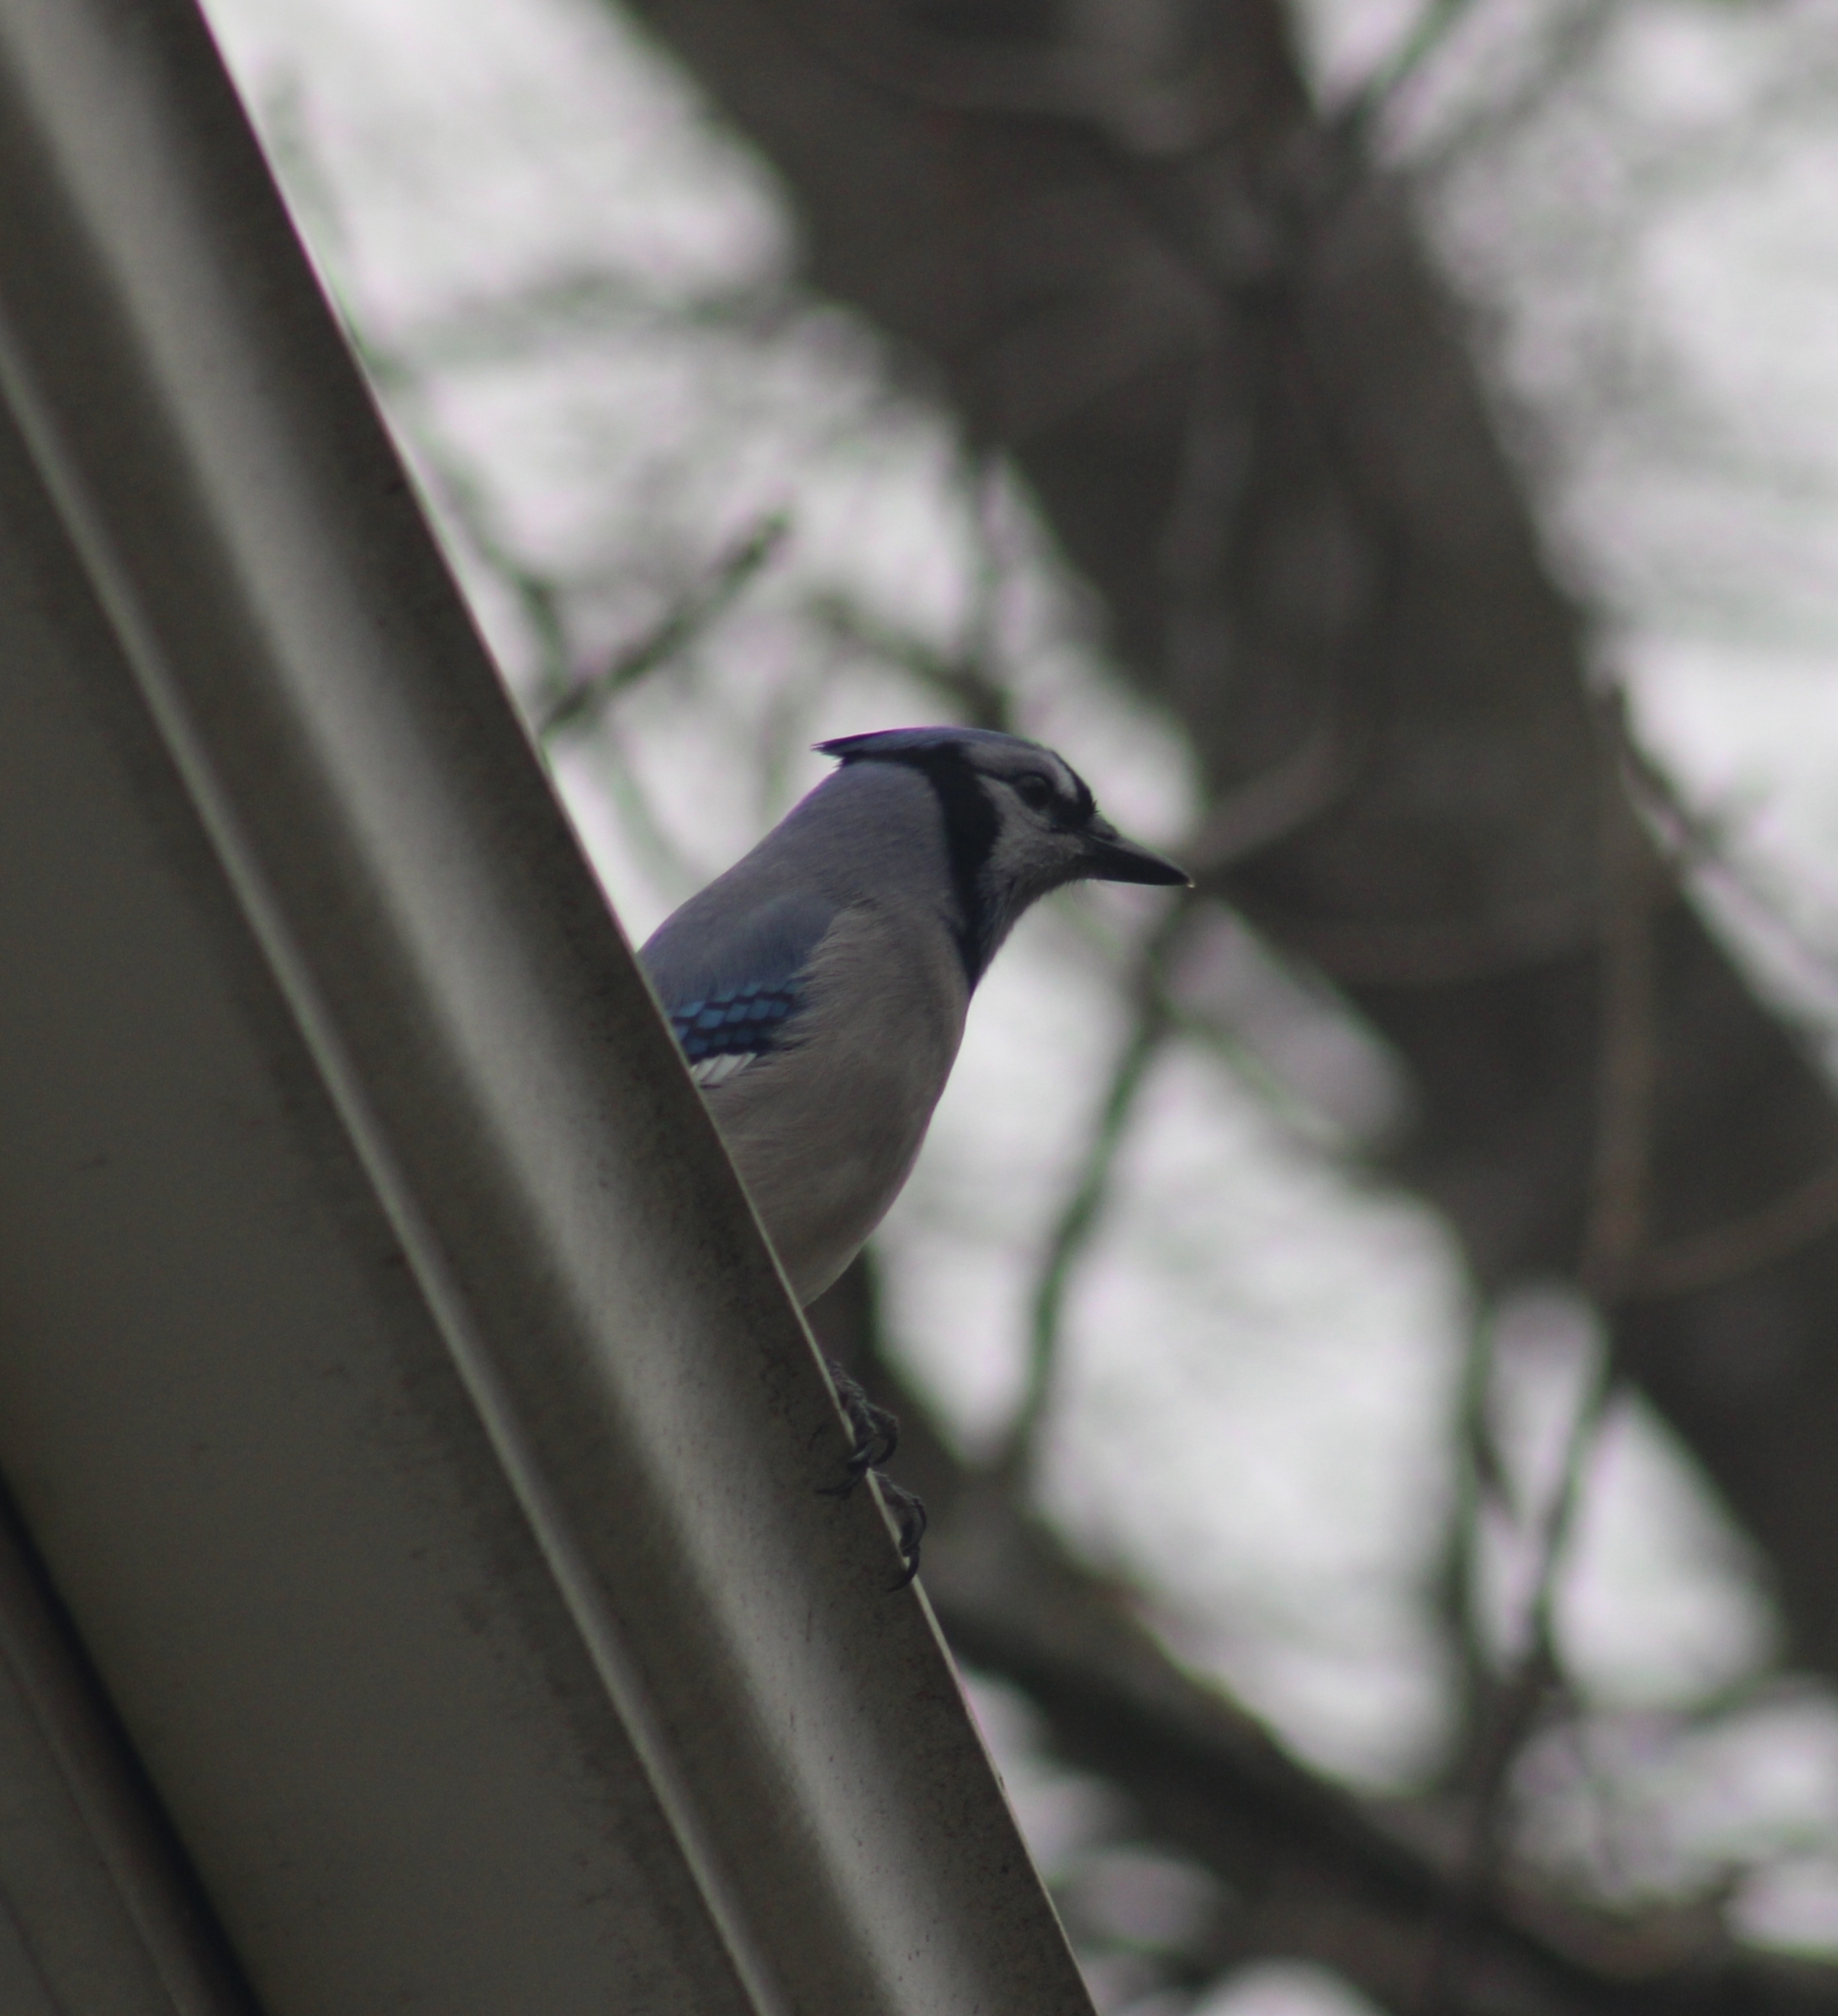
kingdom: Animalia
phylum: Chordata
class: Aves
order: Passeriformes
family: Corvidae
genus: Cyanocitta
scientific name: Cyanocitta cristata
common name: Blue jay
